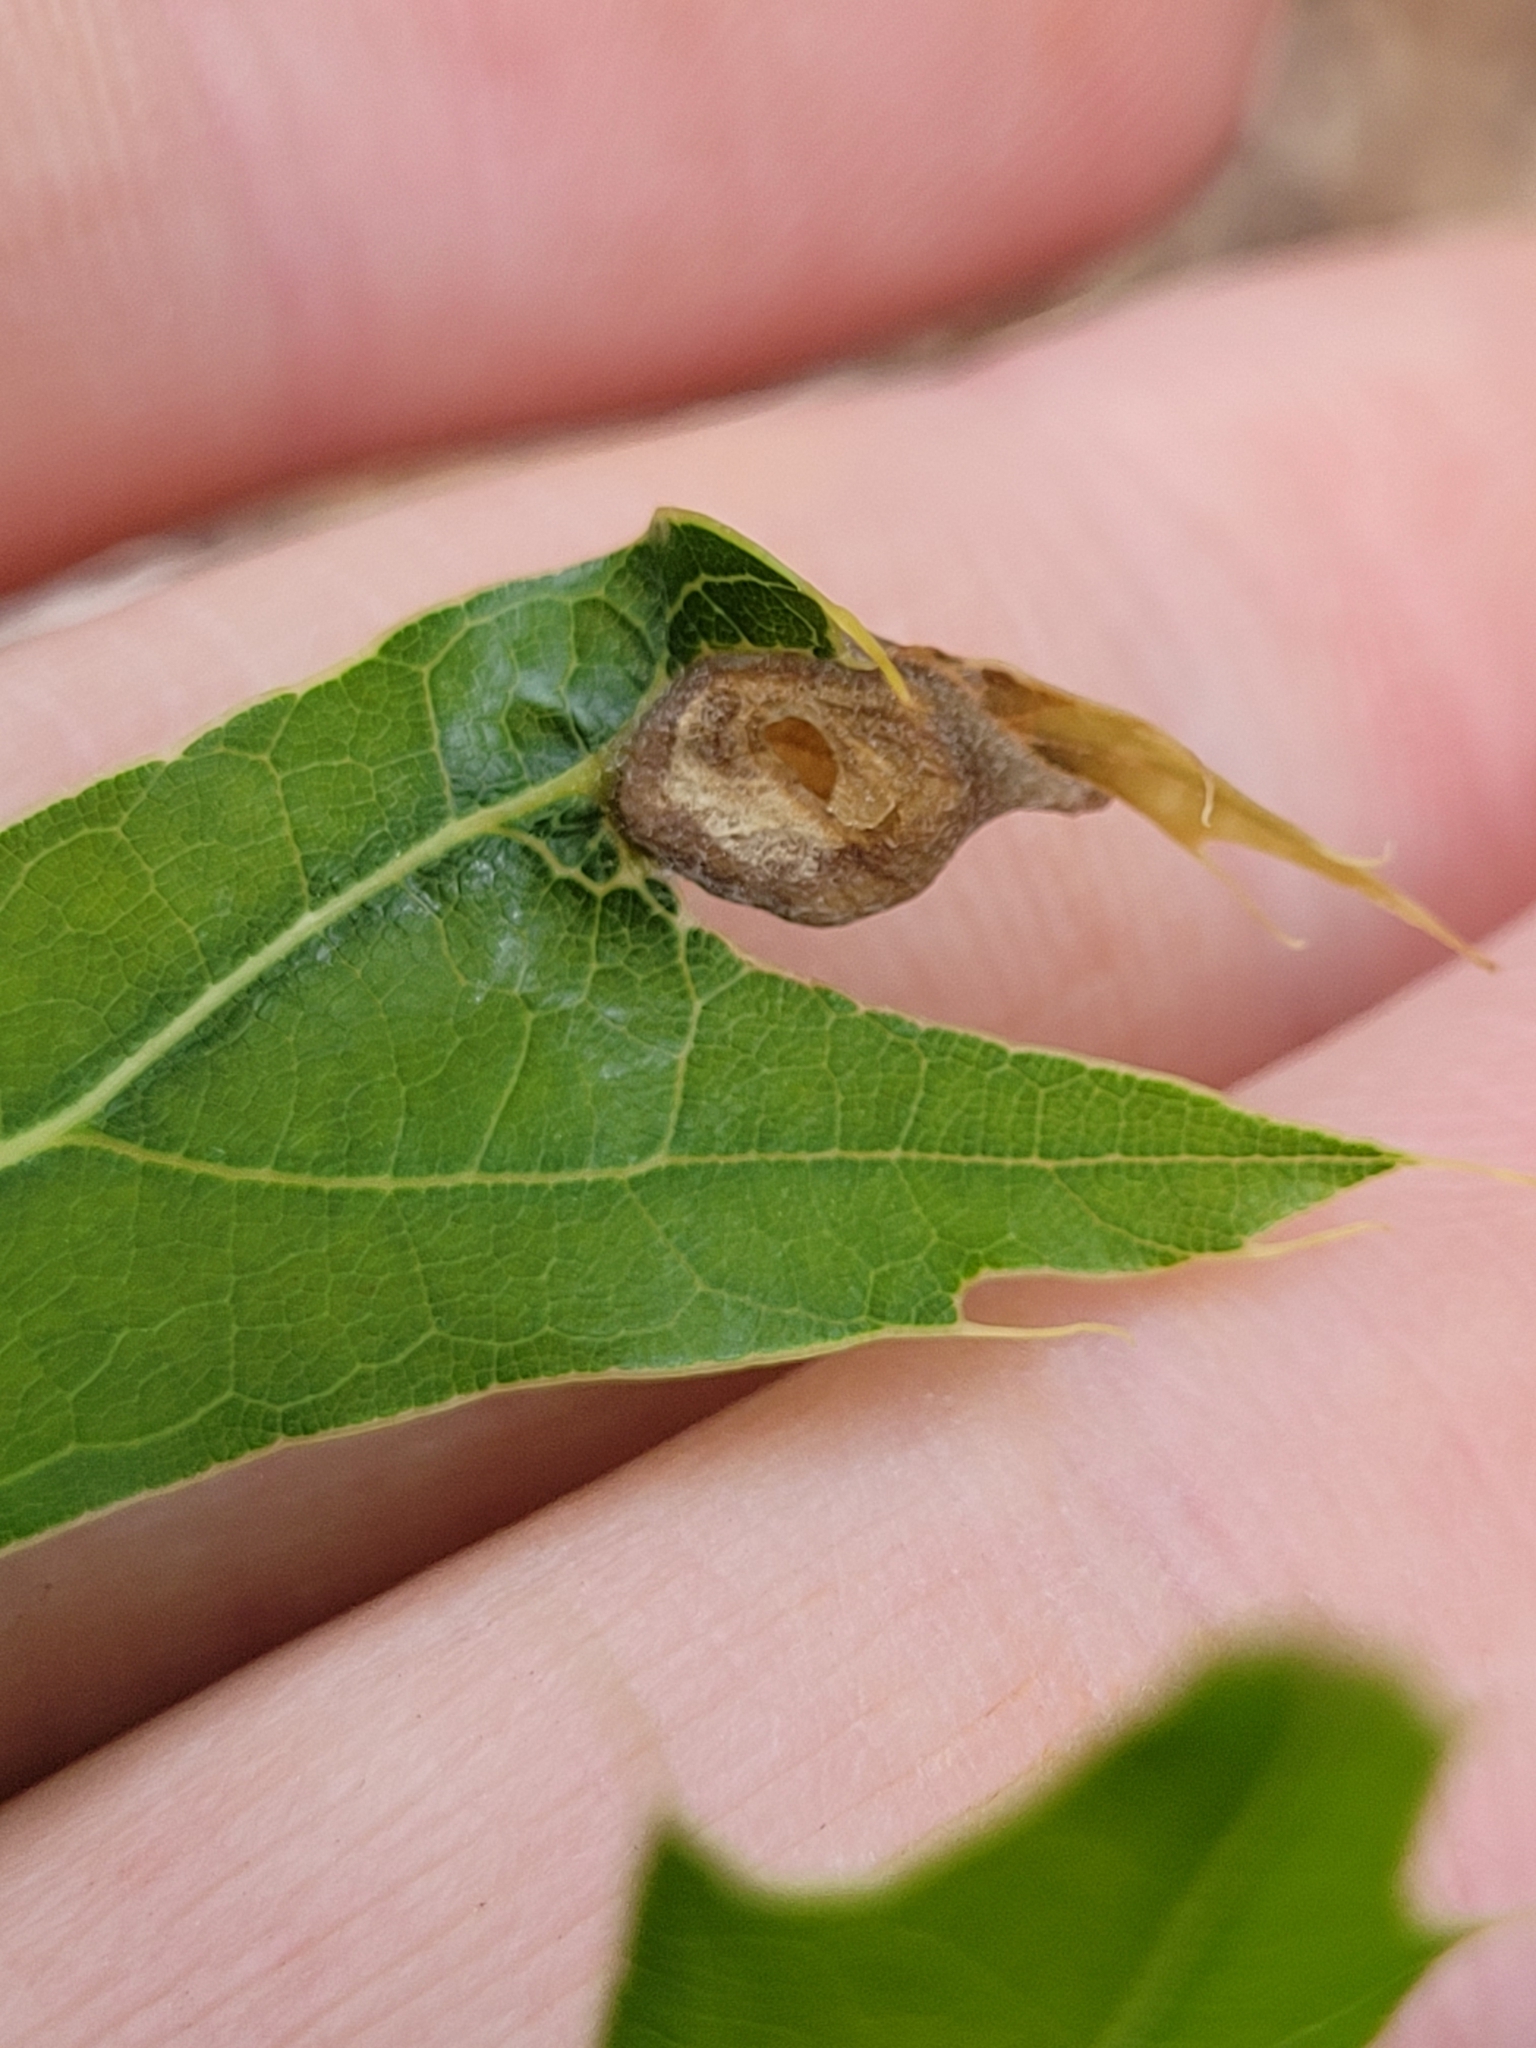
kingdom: Animalia
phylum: Arthropoda
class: Insecta
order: Hymenoptera
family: Cynipidae
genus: Dryocosmus
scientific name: Dryocosmus
